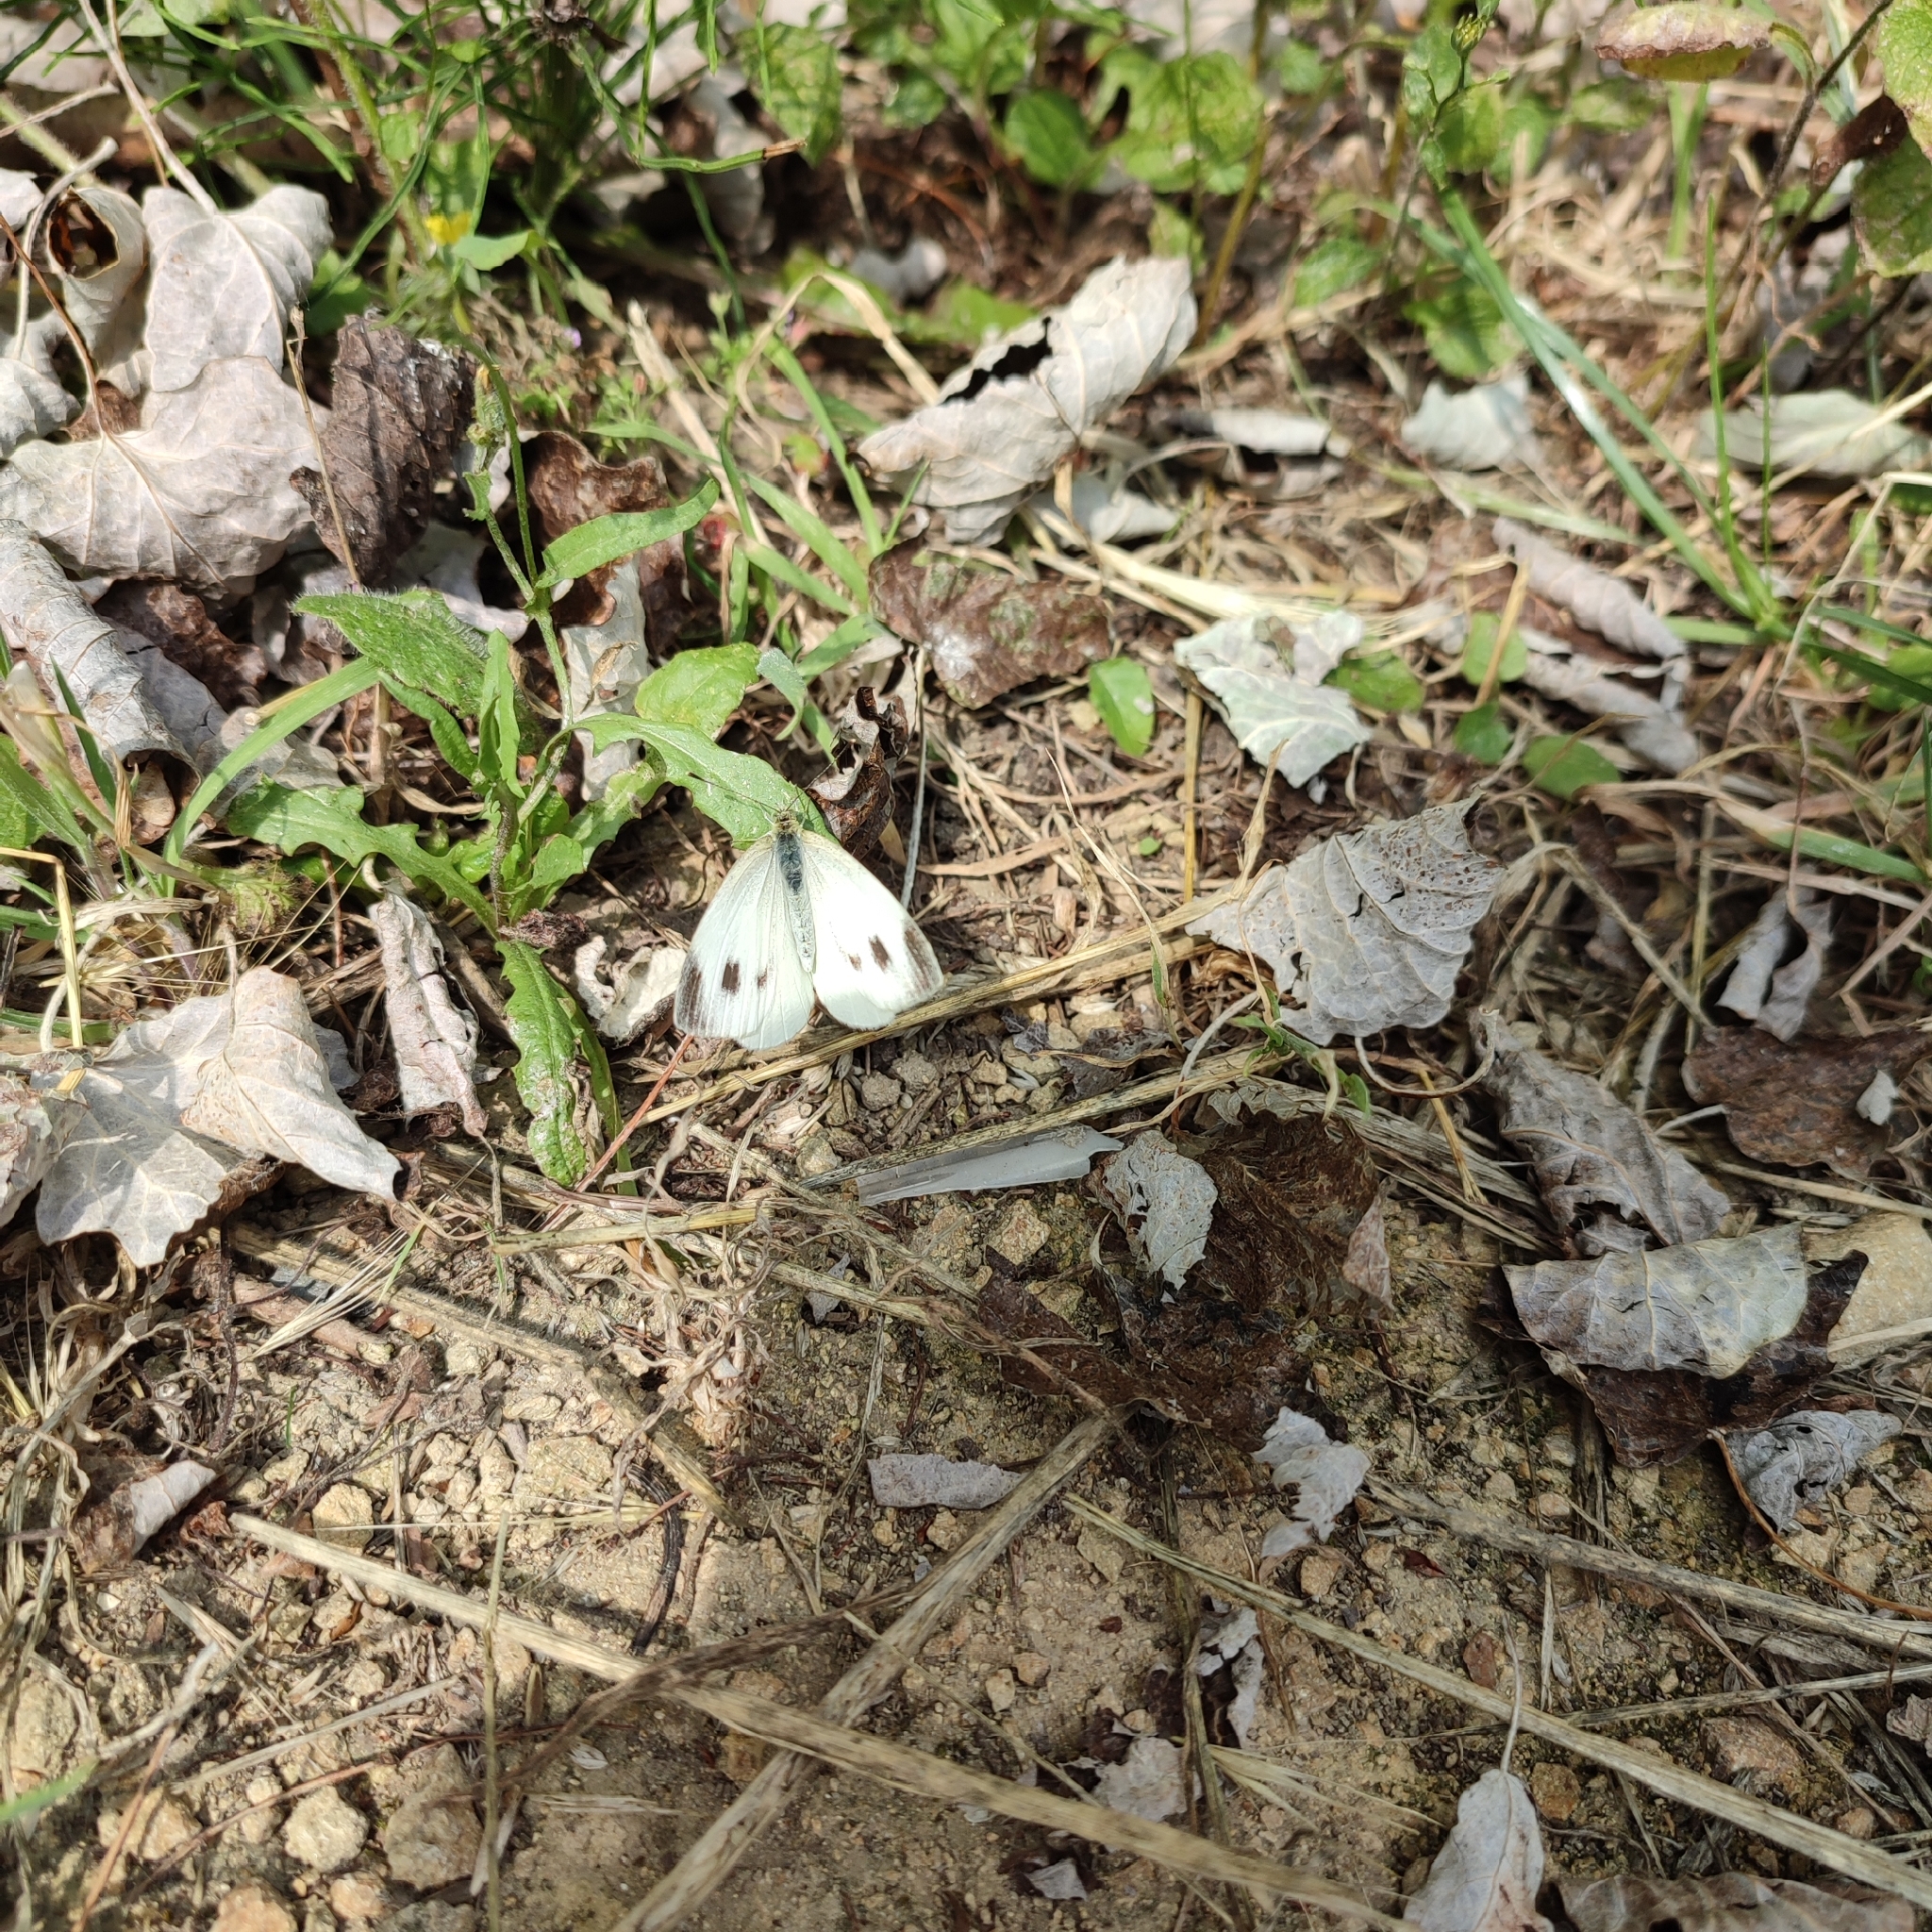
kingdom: Animalia
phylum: Arthropoda
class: Insecta
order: Lepidoptera
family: Pieridae
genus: Pieris
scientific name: Pieris mannii
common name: Southern small white
